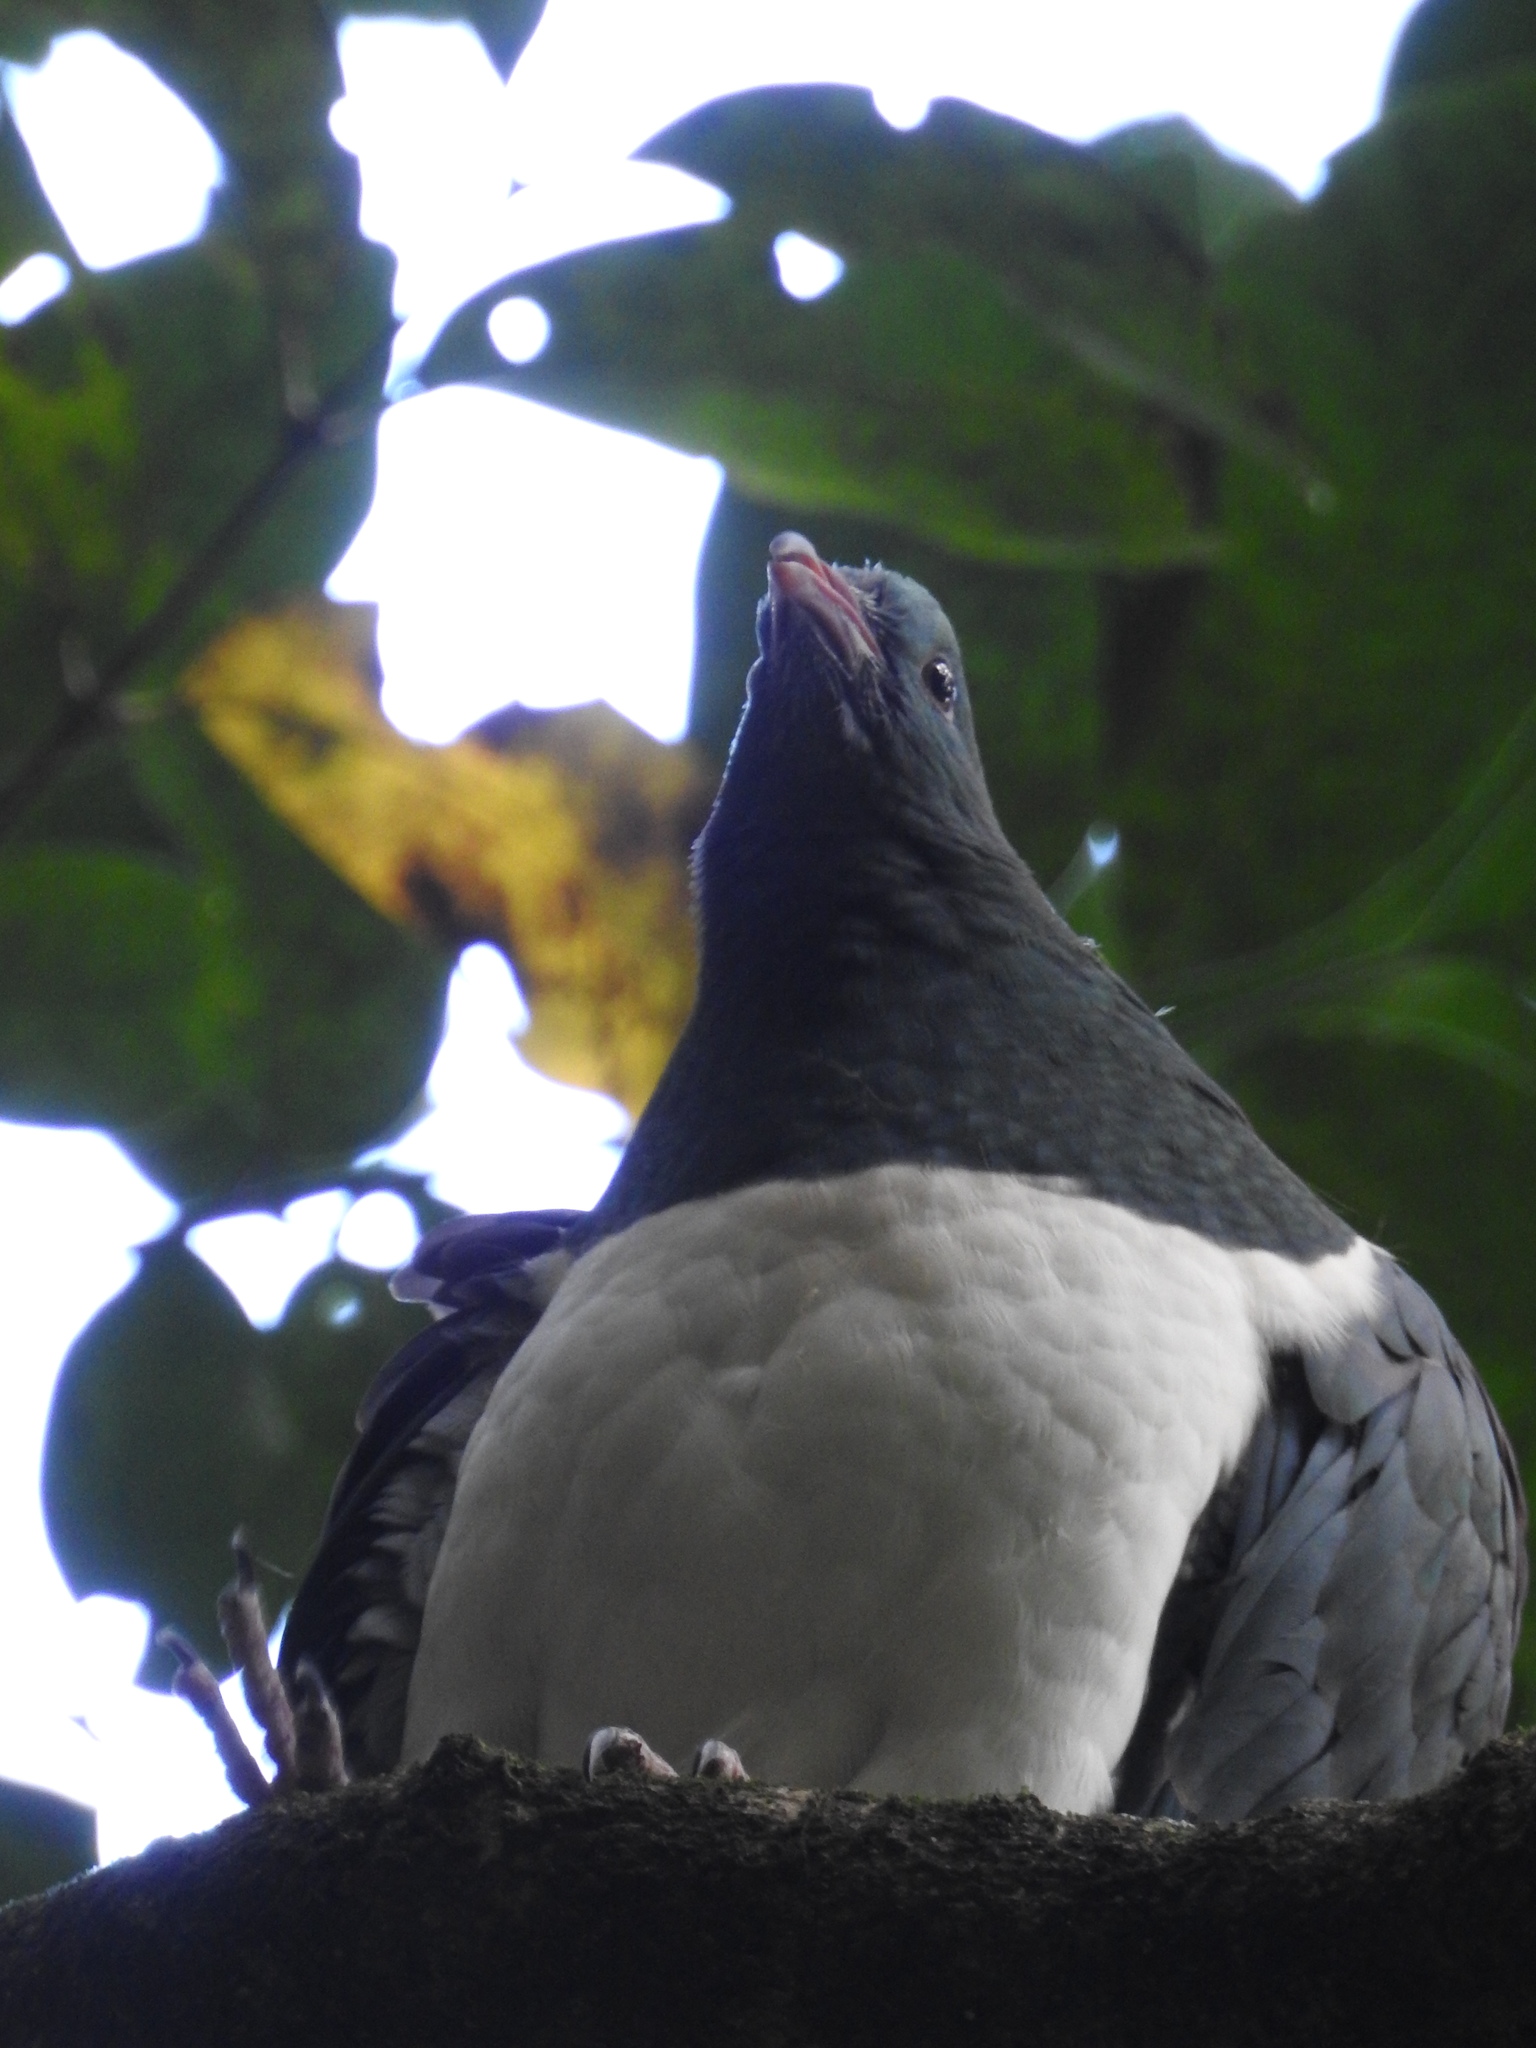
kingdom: Animalia
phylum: Chordata
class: Aves
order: Columbiformes
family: Columbidae
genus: Hemiphaga
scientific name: Hemiphaga novaeseelandiae
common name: New zealand pigeon
